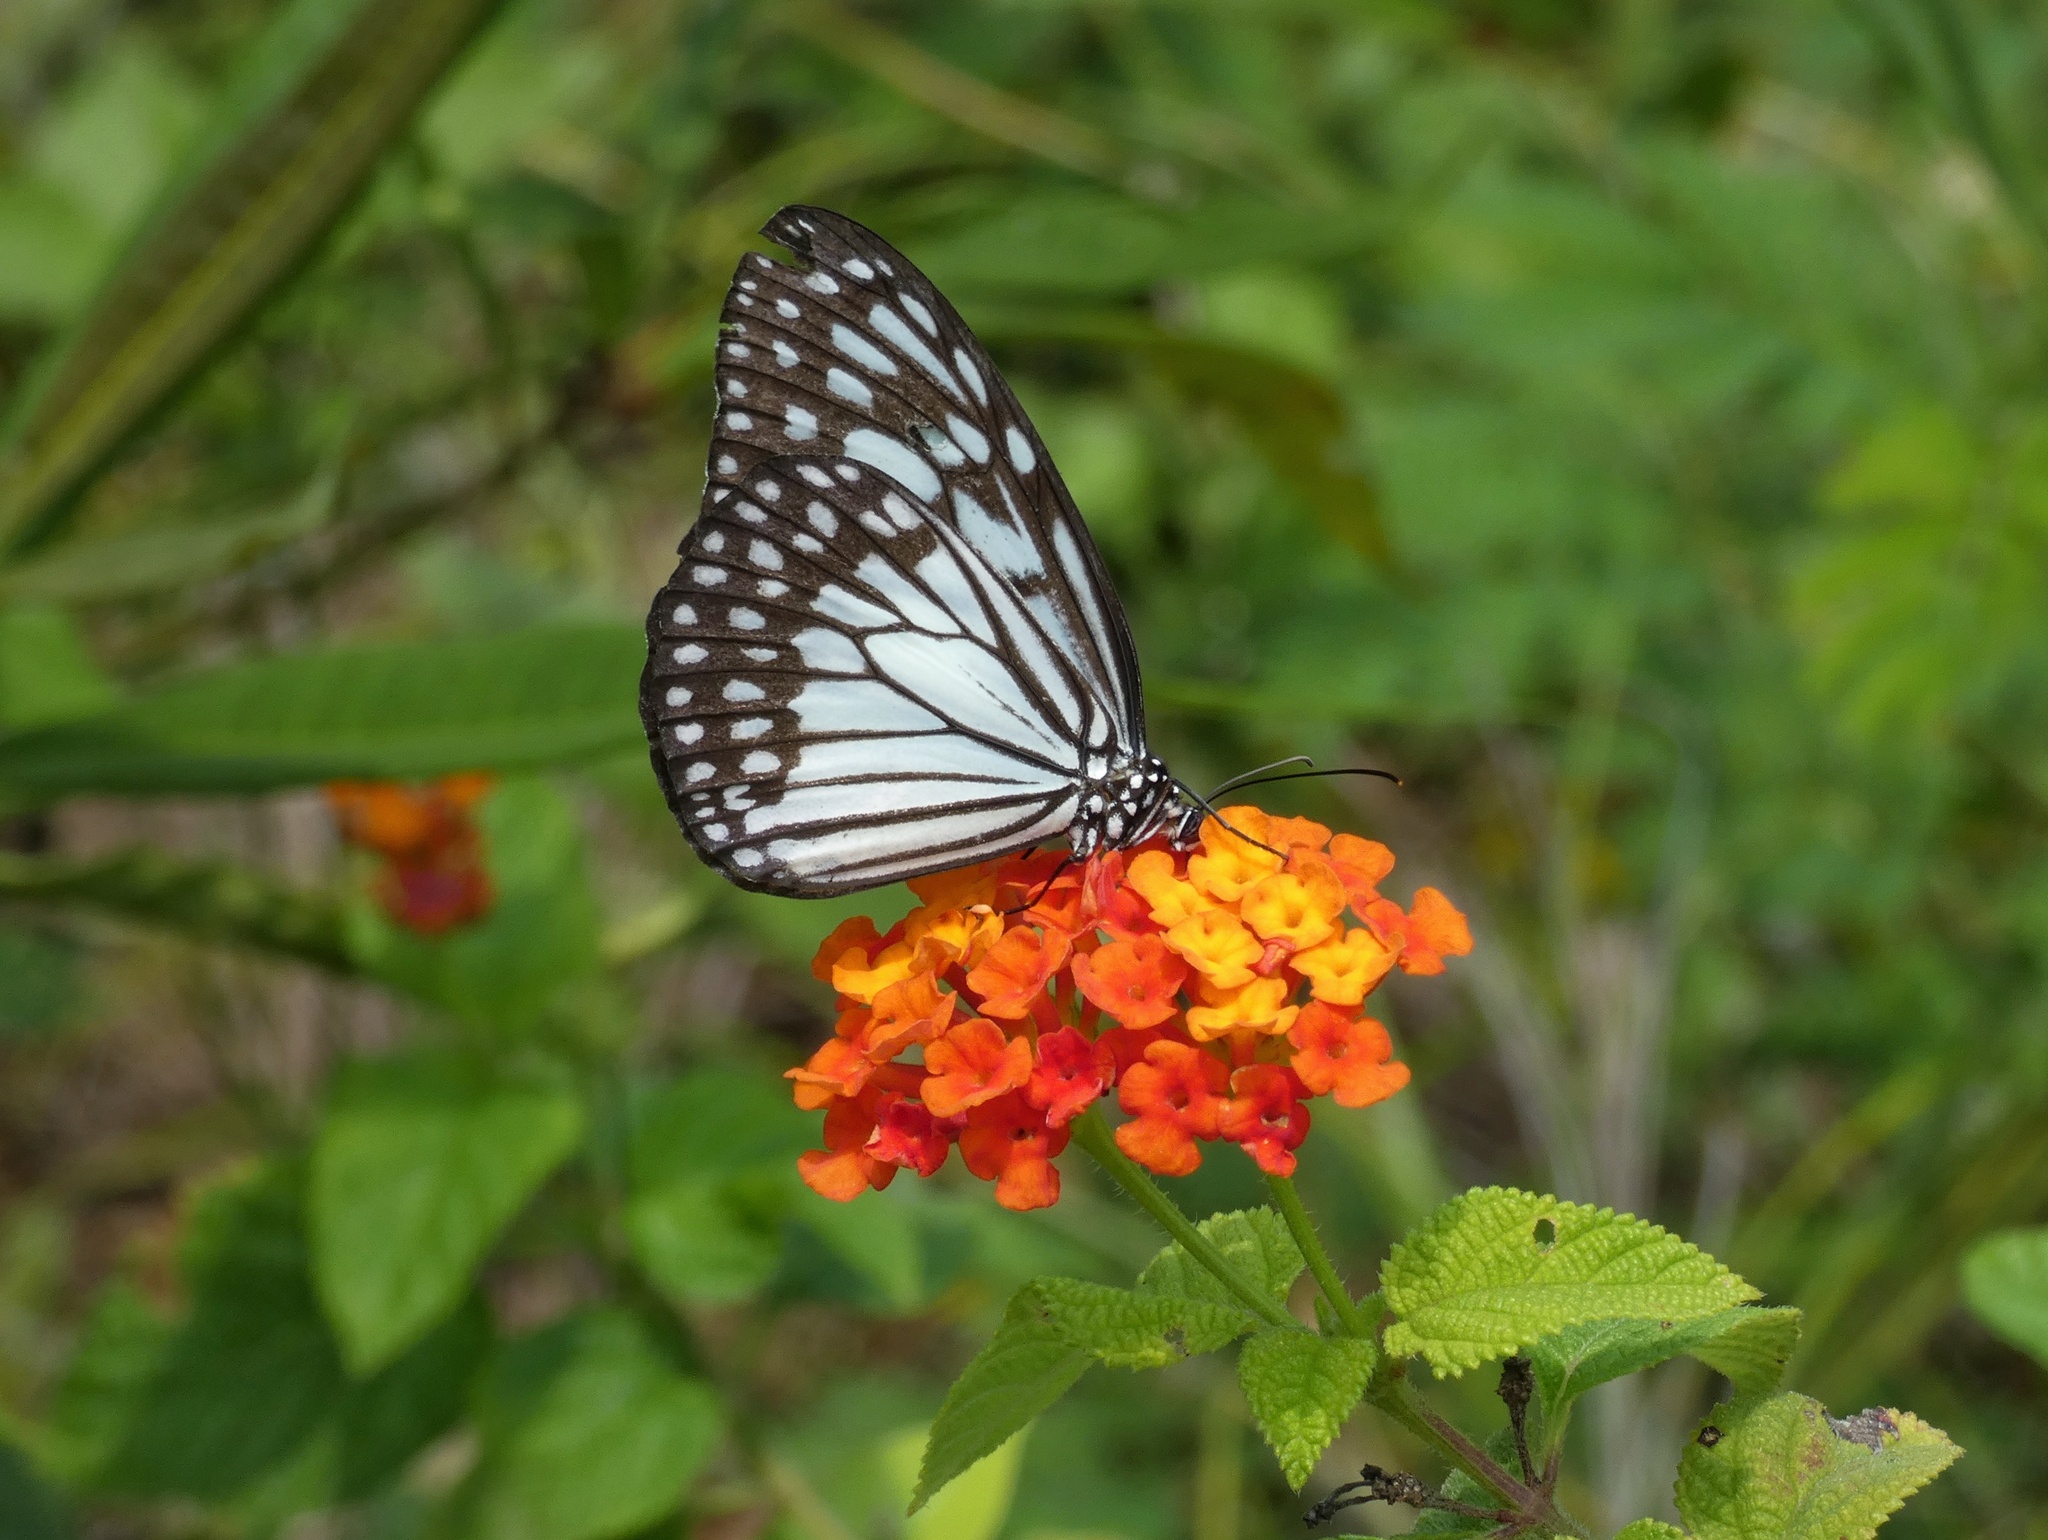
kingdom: Animalia
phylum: Arthropoda
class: Insecta
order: Lepidoptera
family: Nymphalidae
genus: Ideopsis
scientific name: Ideopsis juventa
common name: Grey glassy tiger
